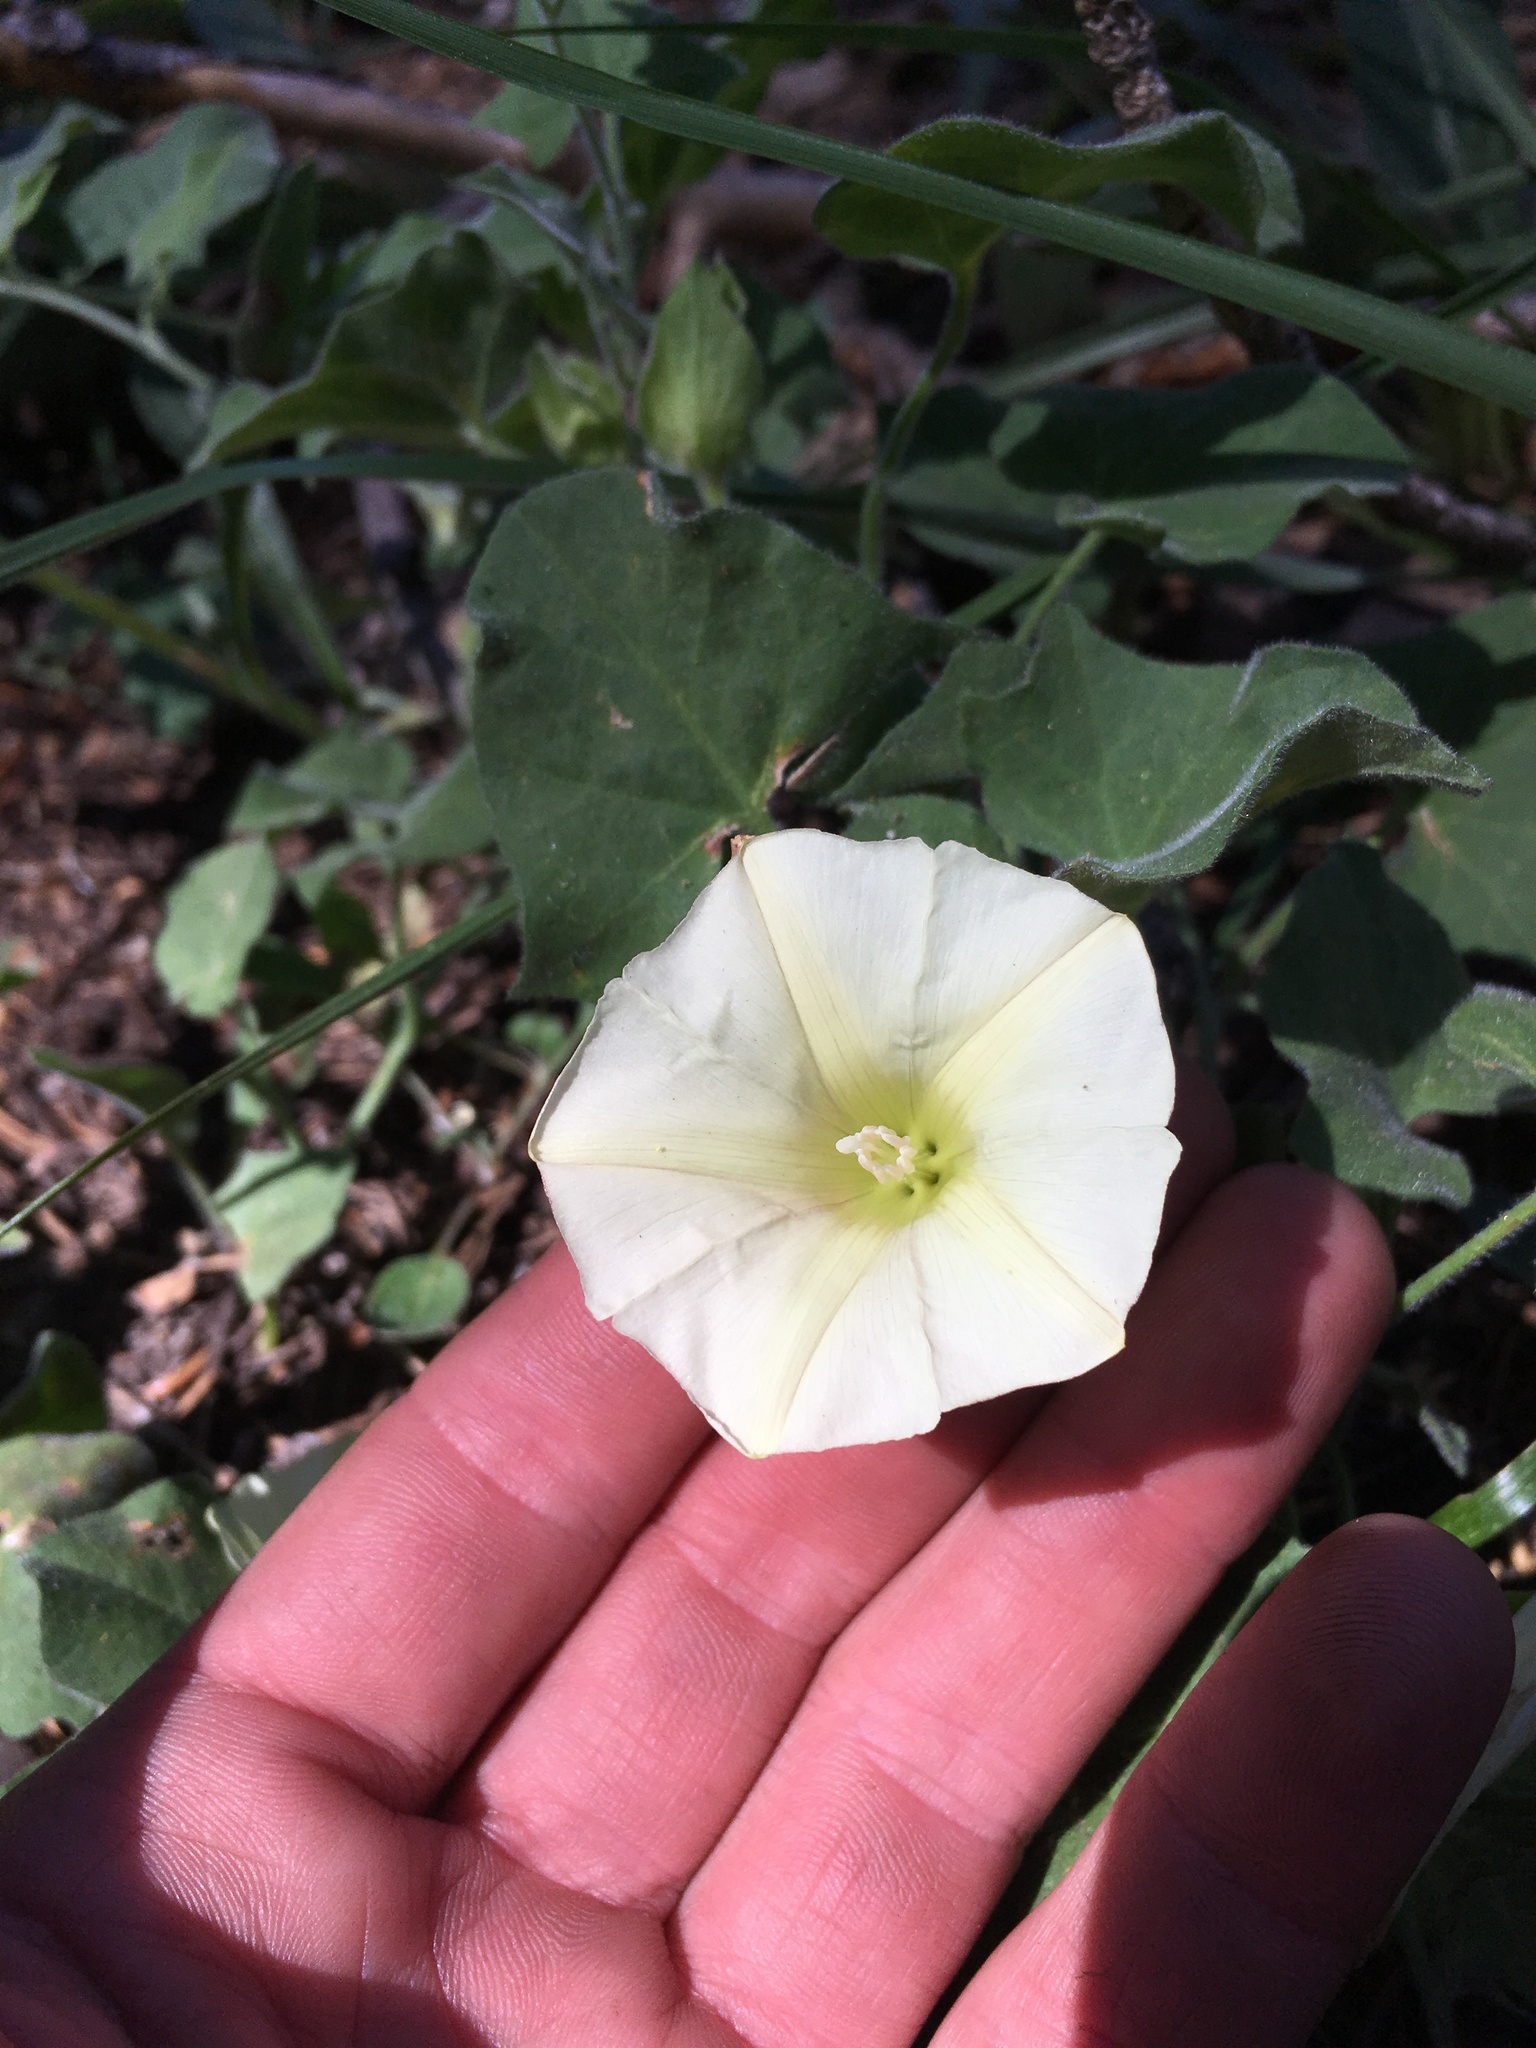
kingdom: Plantae
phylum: Tracheophyta
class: Magnoliopsida
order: Solanales
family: Convolvulaceae
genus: Calystegia
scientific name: Calystegia malacophylla
